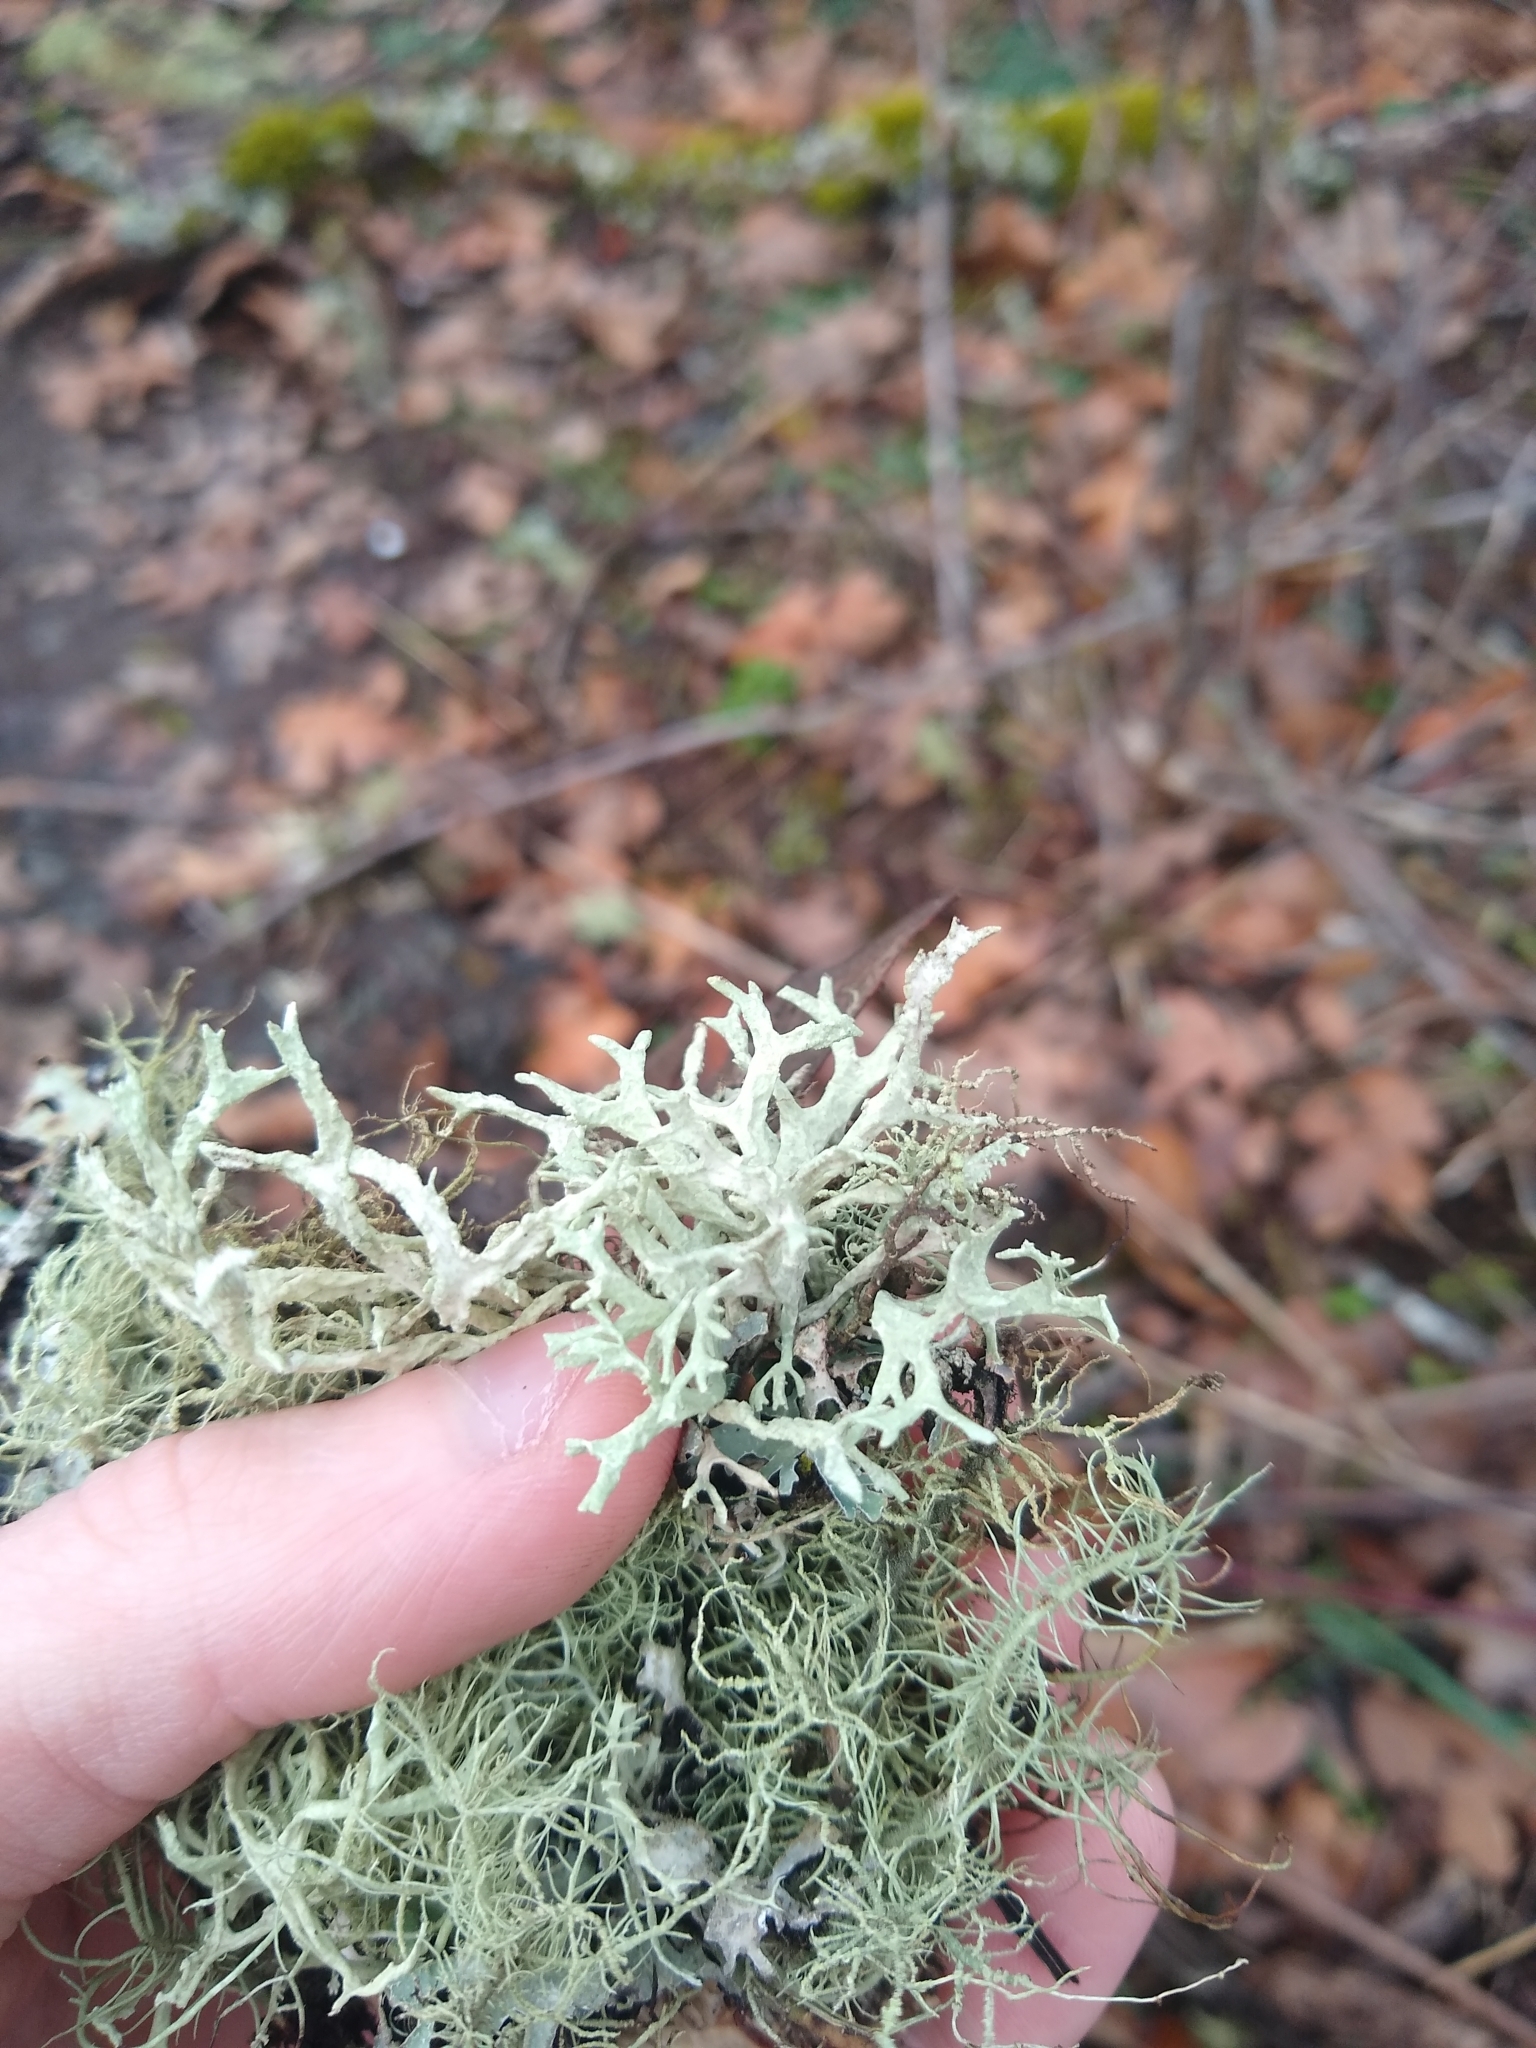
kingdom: Fungi
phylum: Ascomycota
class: Lecanoromycetes
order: Lecanorales
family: Parmeliaceae
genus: Evernia
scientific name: Evernia prunastri
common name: Oak moss
